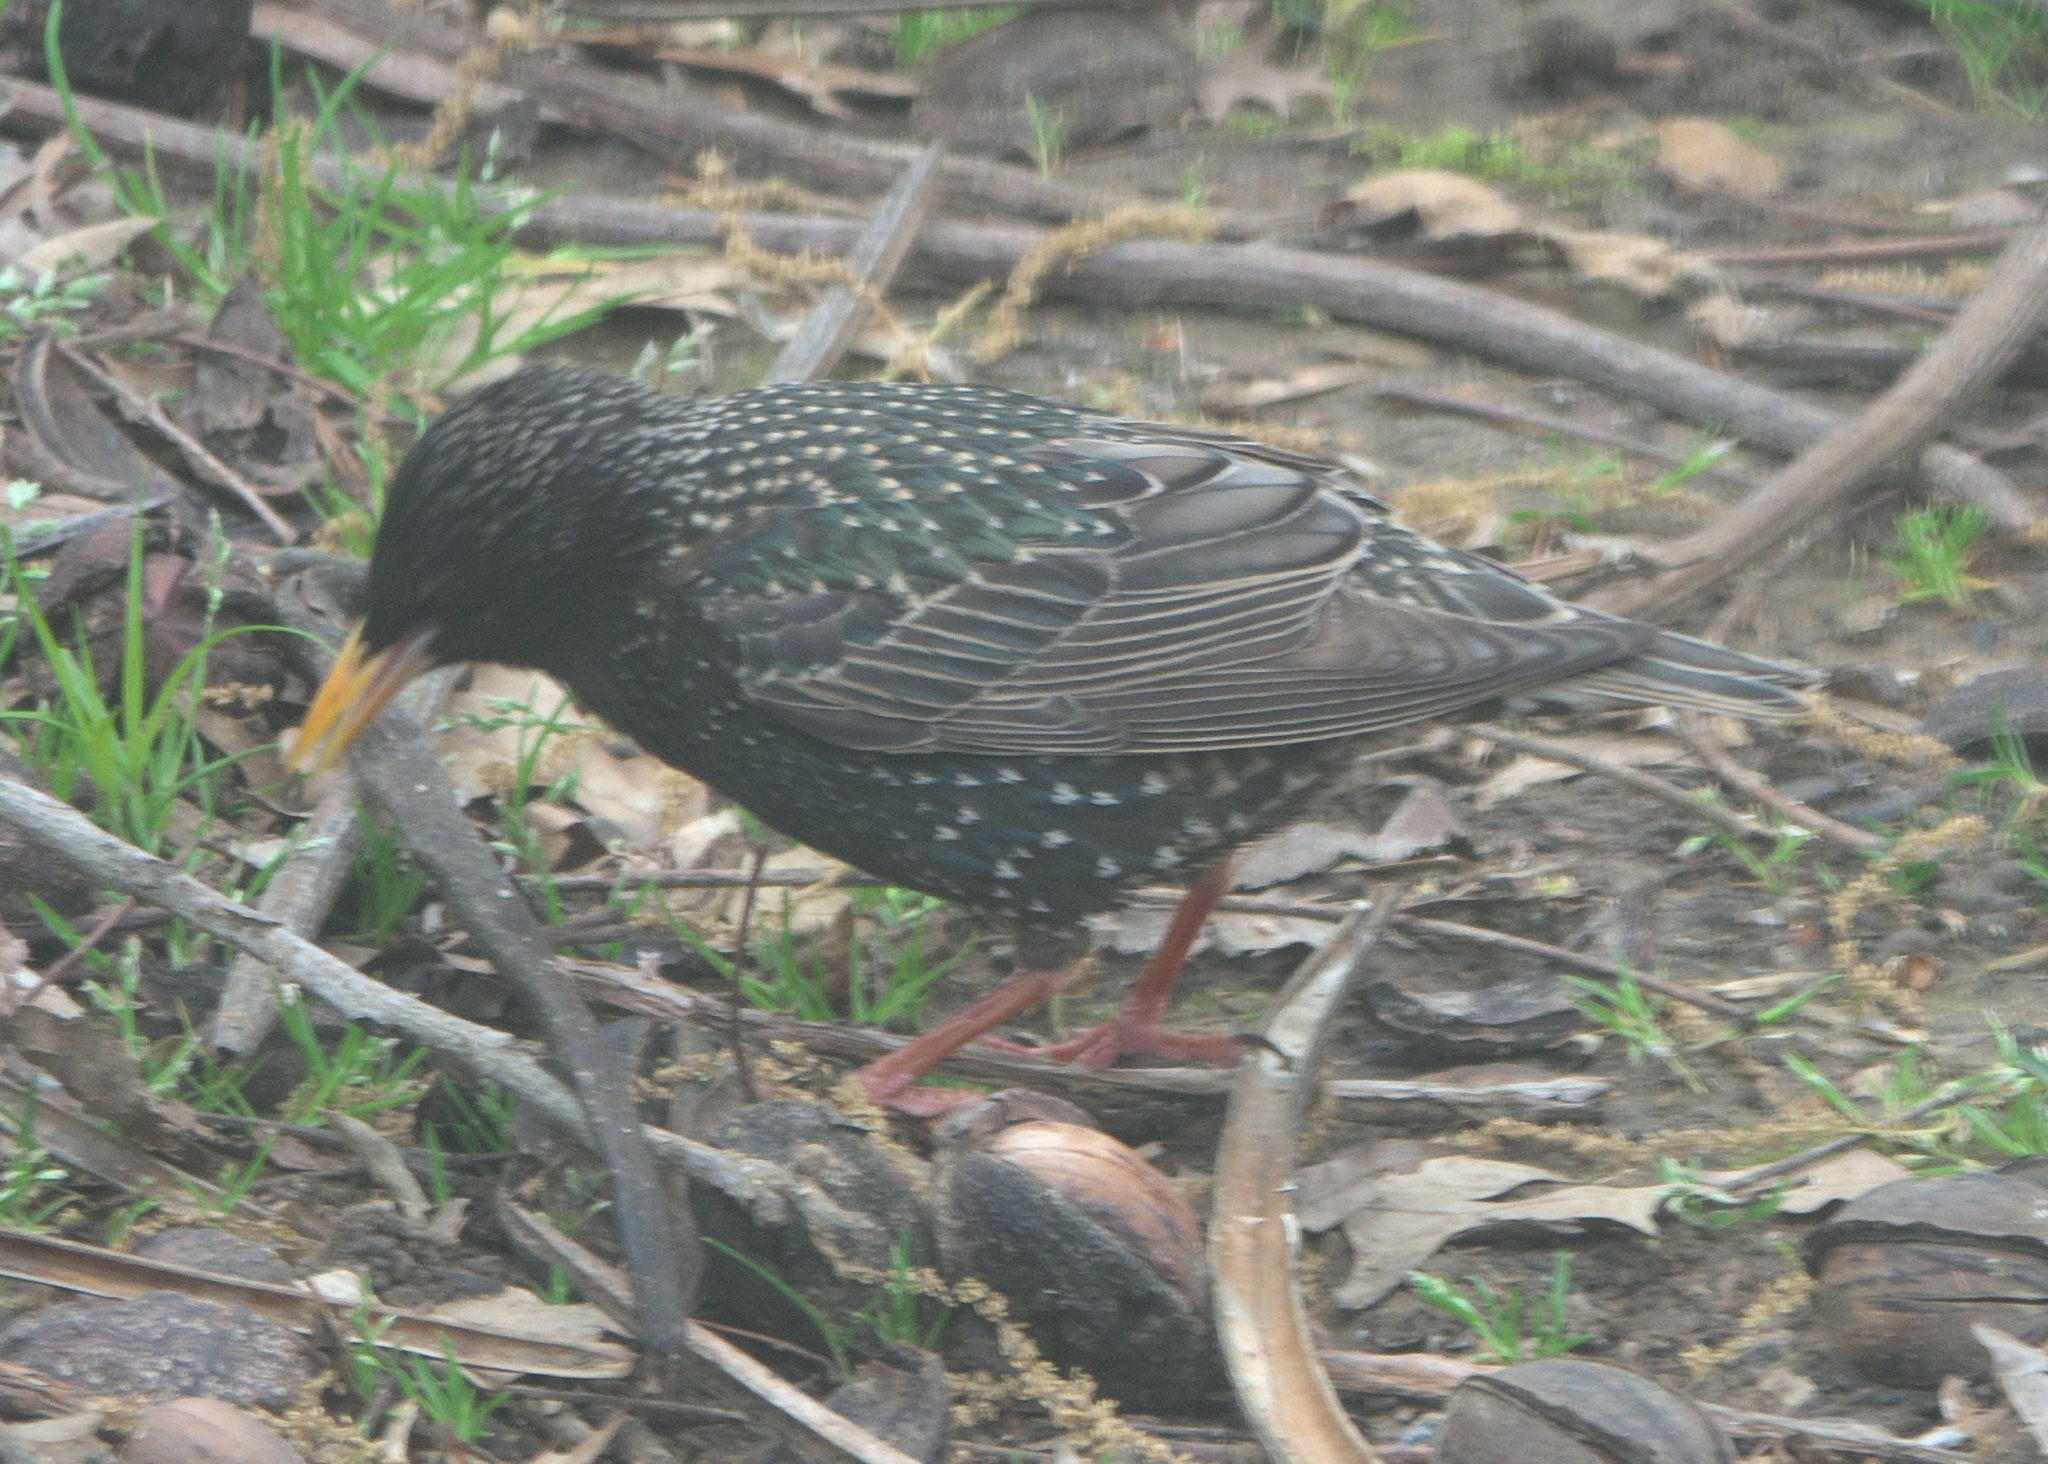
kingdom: Animalia
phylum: Chordata
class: Aves
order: Passeriformes
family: Sturnidae
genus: Sturnus
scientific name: Sturnus vulgaris
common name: Common starling
